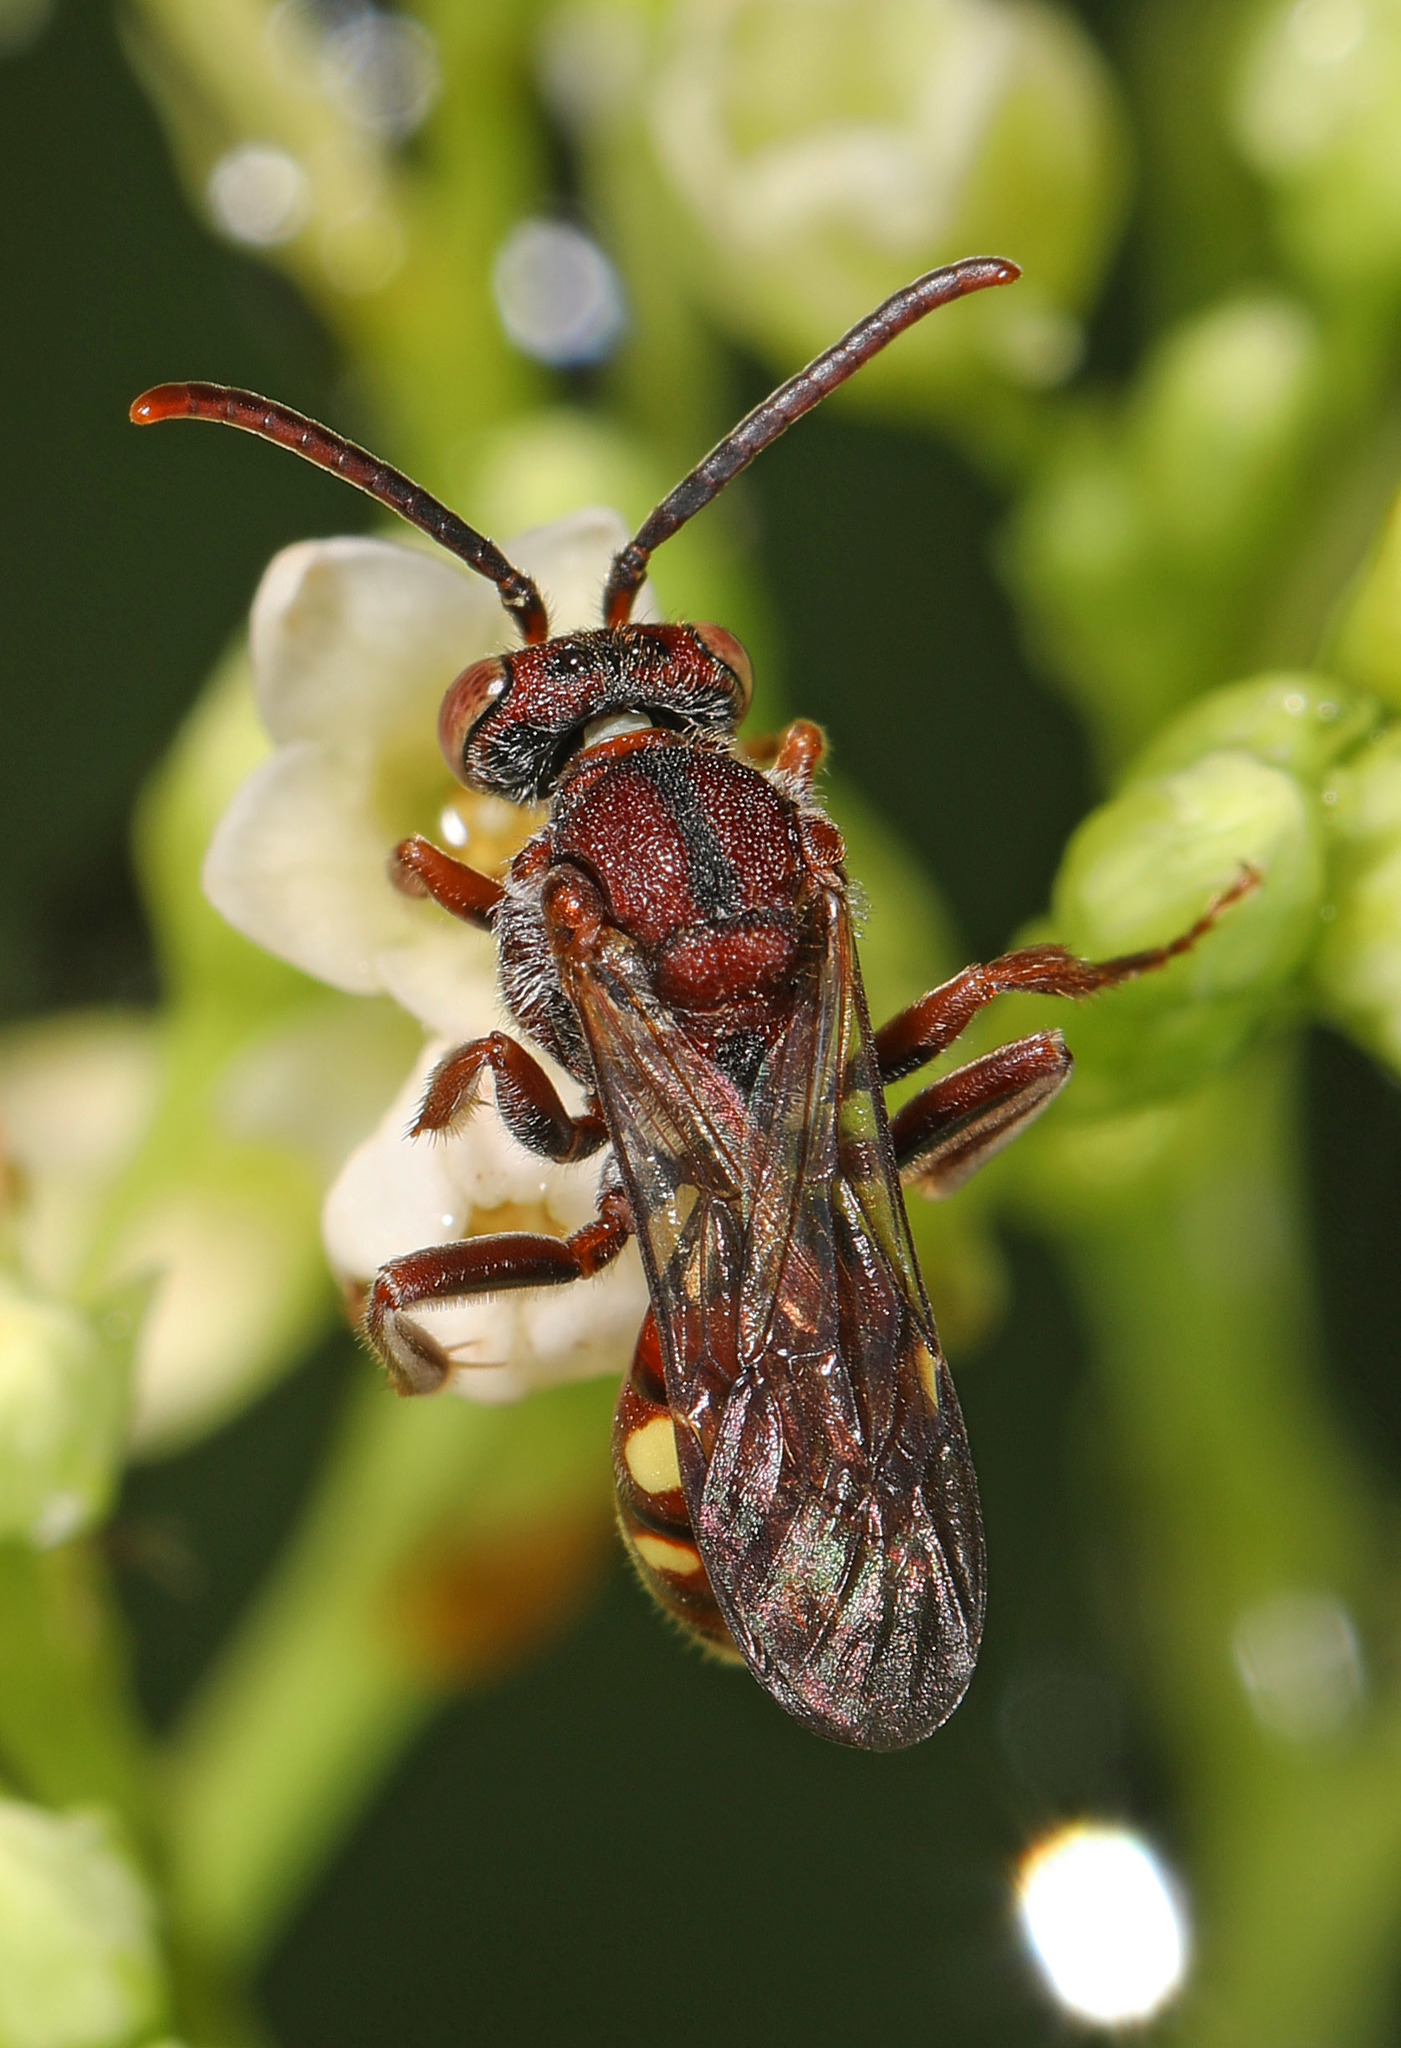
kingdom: Animalia
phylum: Arthropoda
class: Insecta
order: Hymenoptera
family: Apidae
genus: Nomada
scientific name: Nomada
